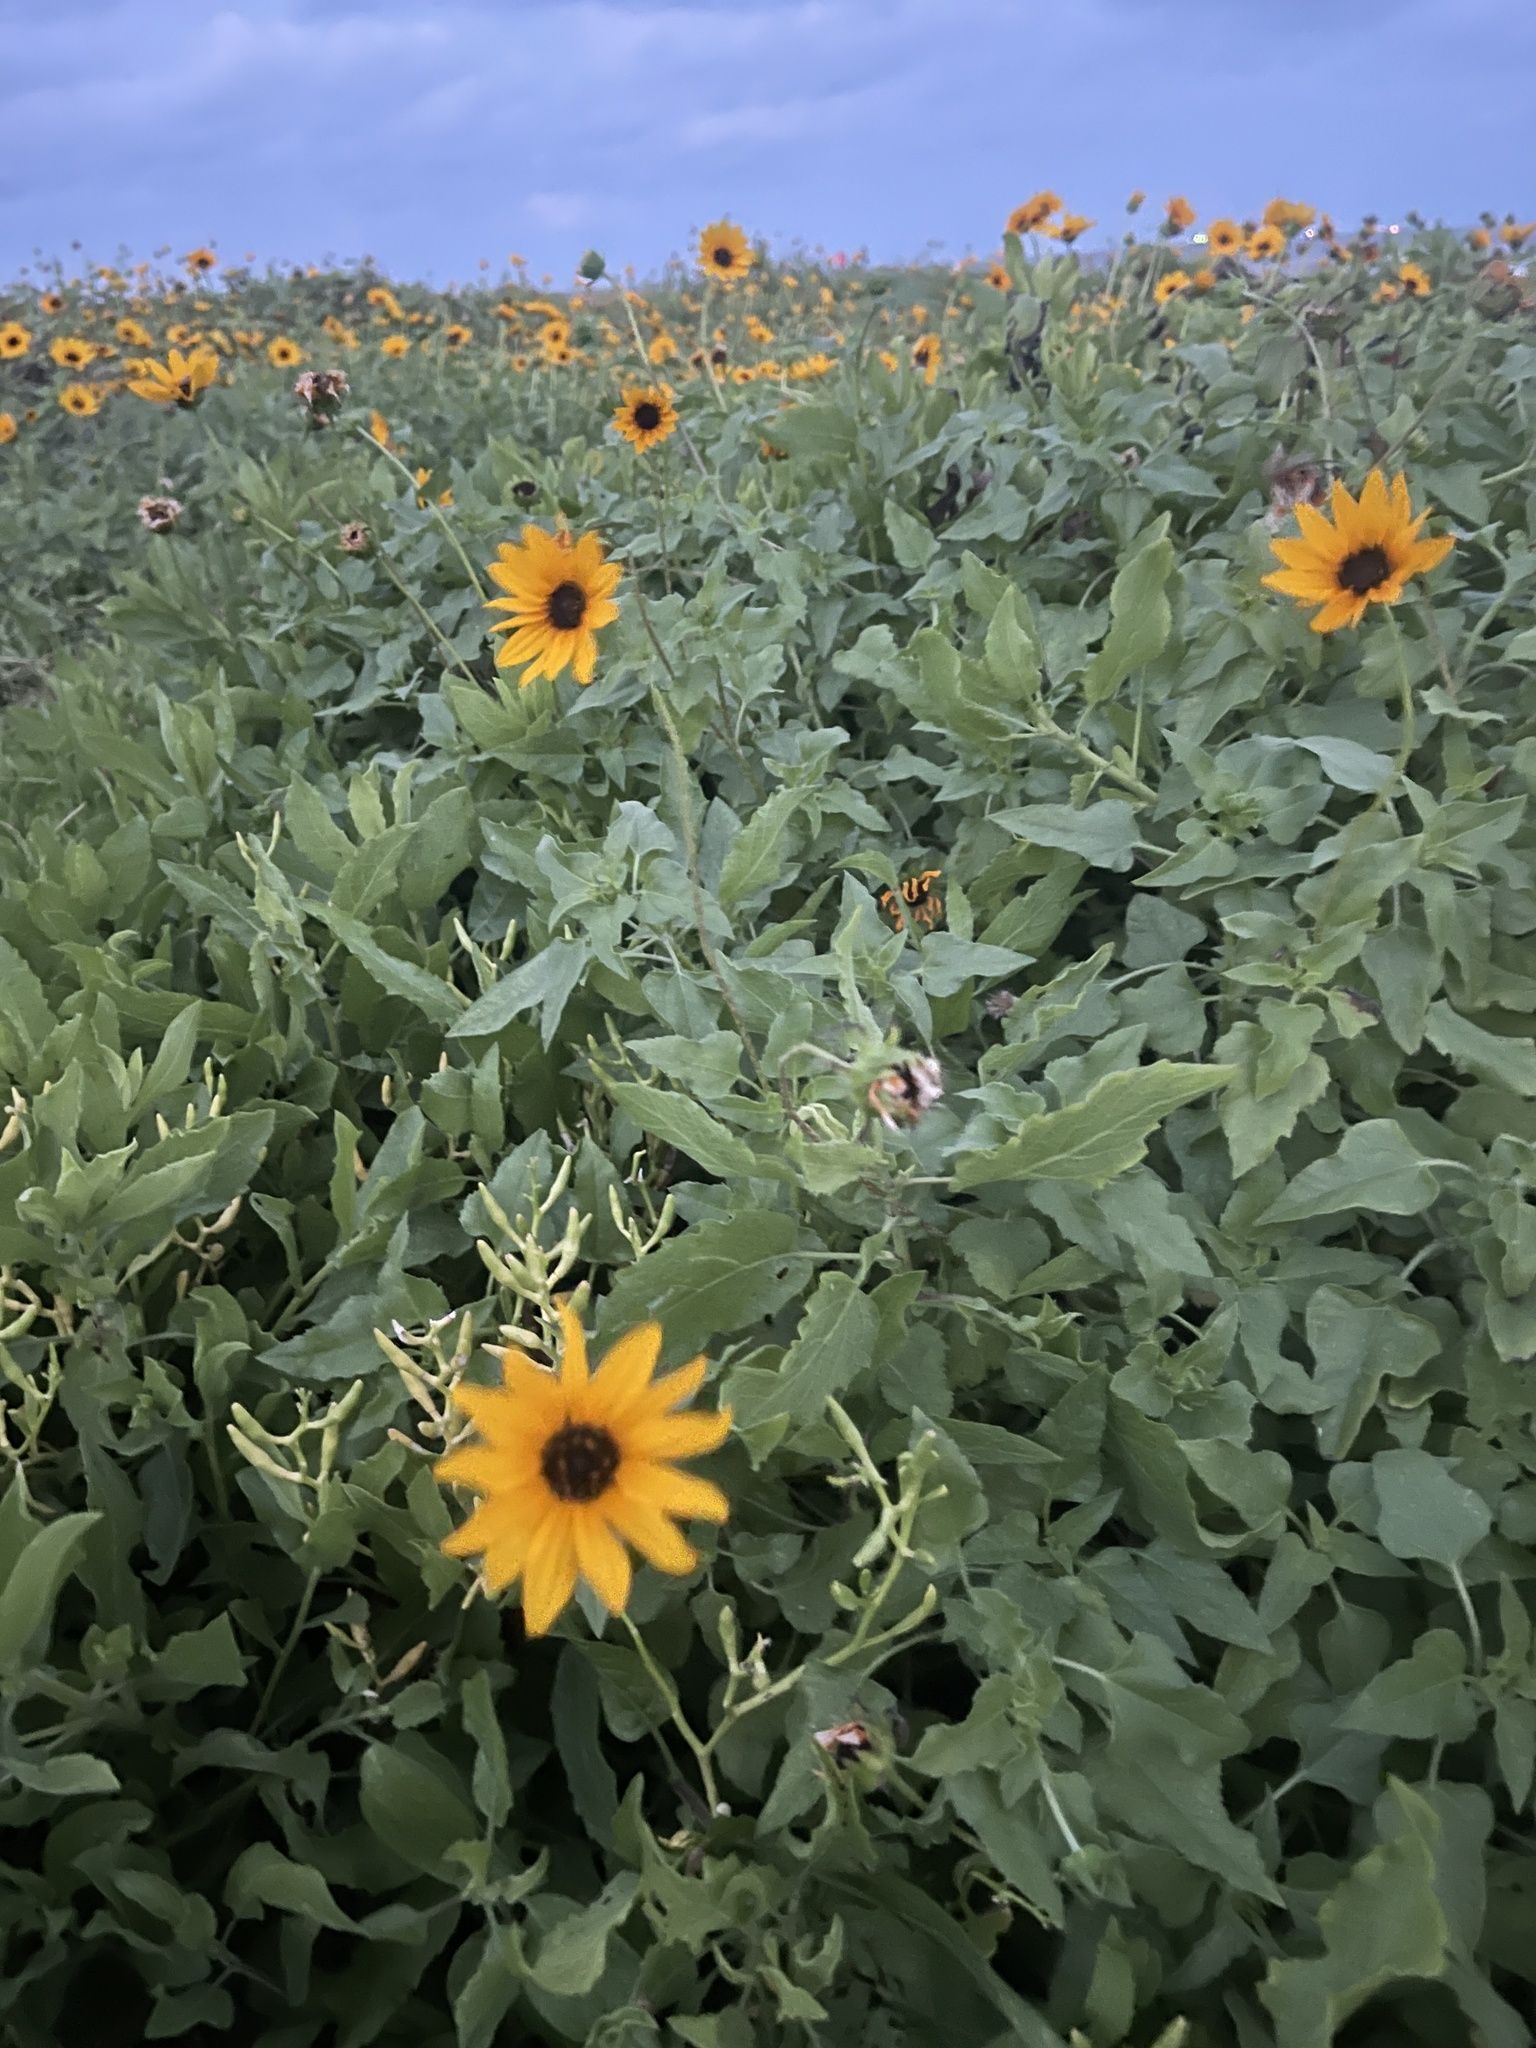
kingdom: Plantae
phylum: Tracheophyta
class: Magnoliopsida
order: Asterales
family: Asteraceae
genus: Helianthus
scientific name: Helianthus debilis
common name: Weak sunflower
